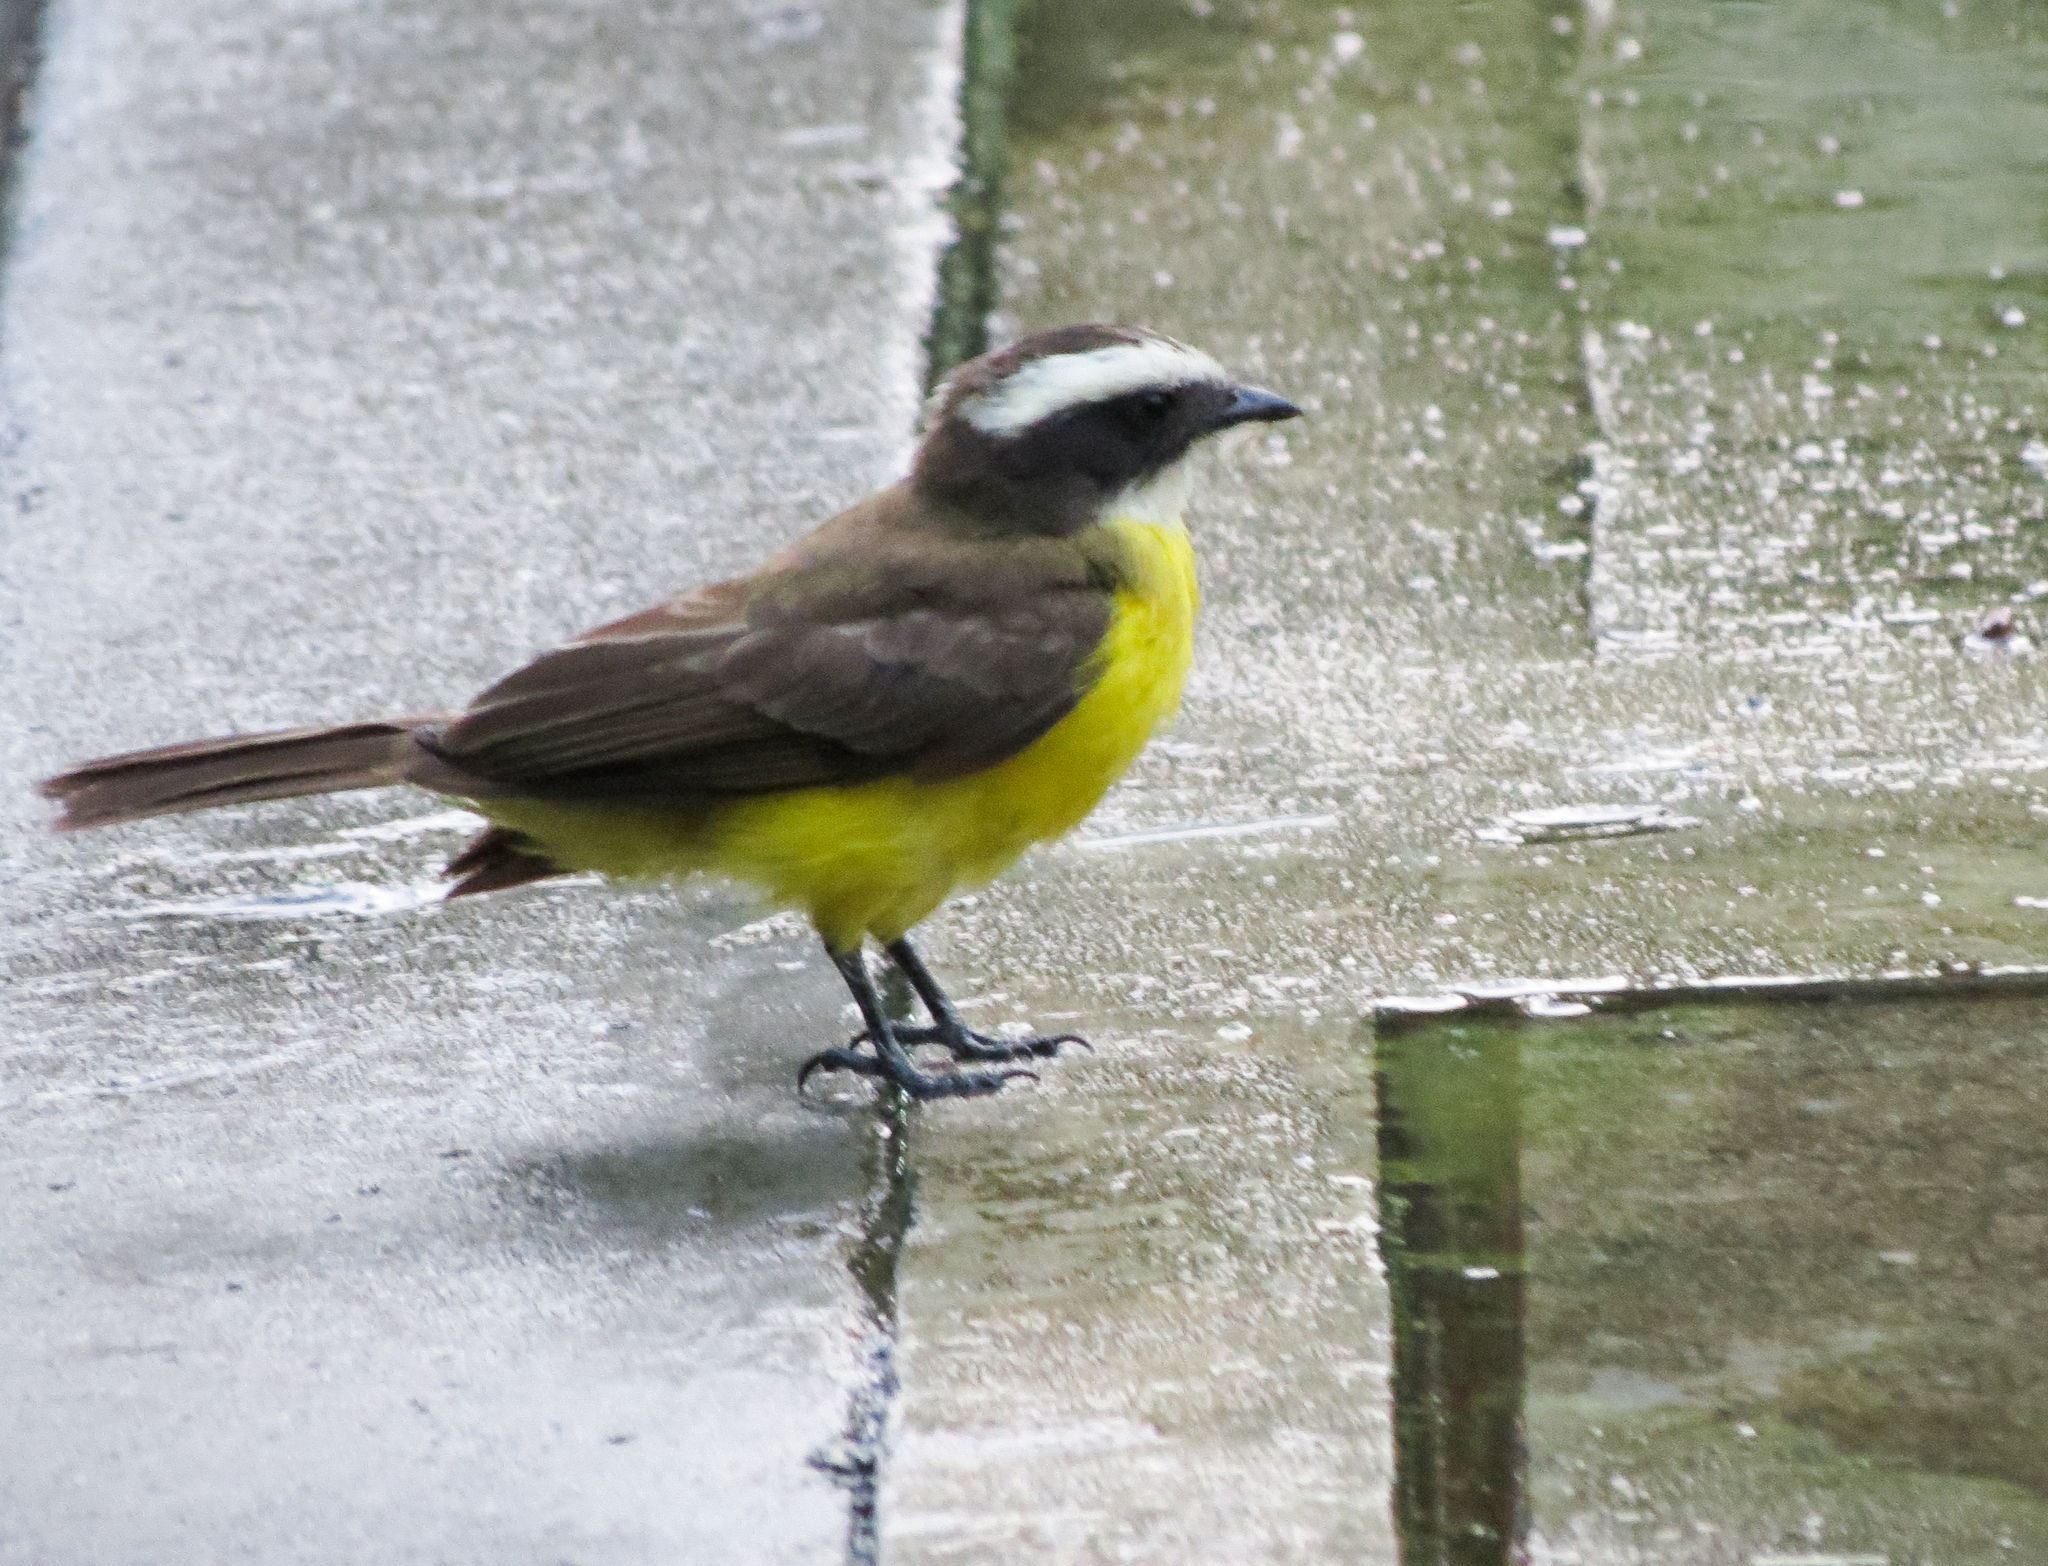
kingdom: Animalia
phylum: Chordata
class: Aves
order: Passeriformes
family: Tyrannidae
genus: Myiozetetes
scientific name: Myiozetetes cayanensis
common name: Rusty-margined flycatcher
